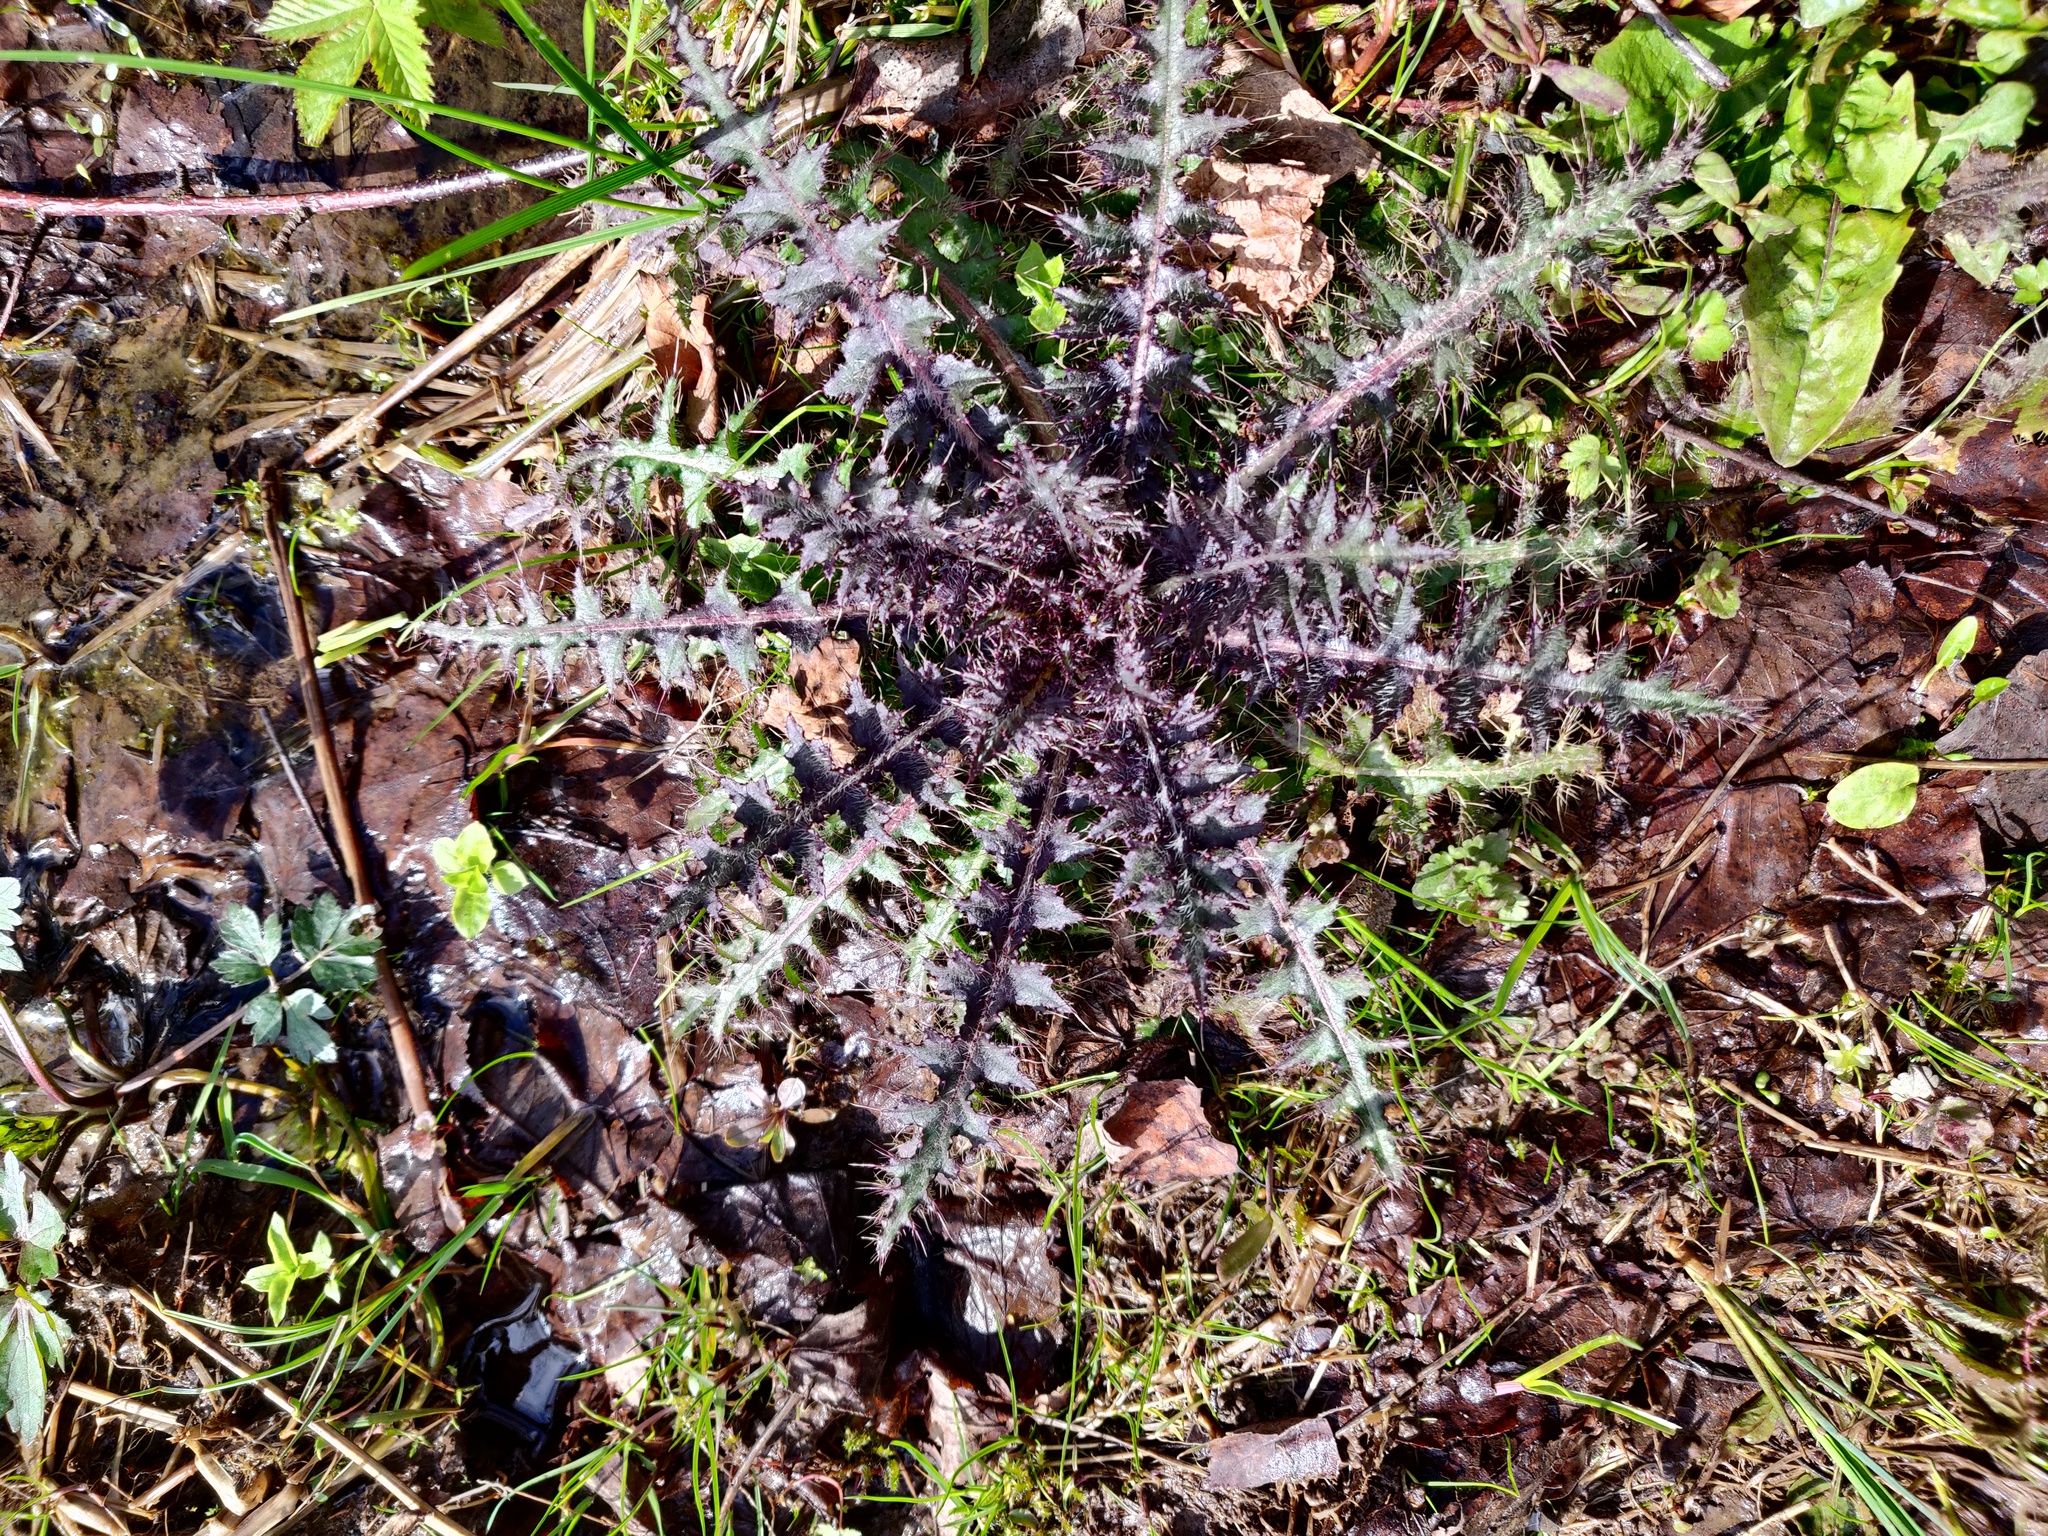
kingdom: Plantae
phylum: Tracheophyta
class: Magnoliopsida
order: Asterales
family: Asteraceae
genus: Cirsium
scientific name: Cirsium palustre
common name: Marsh thistle
